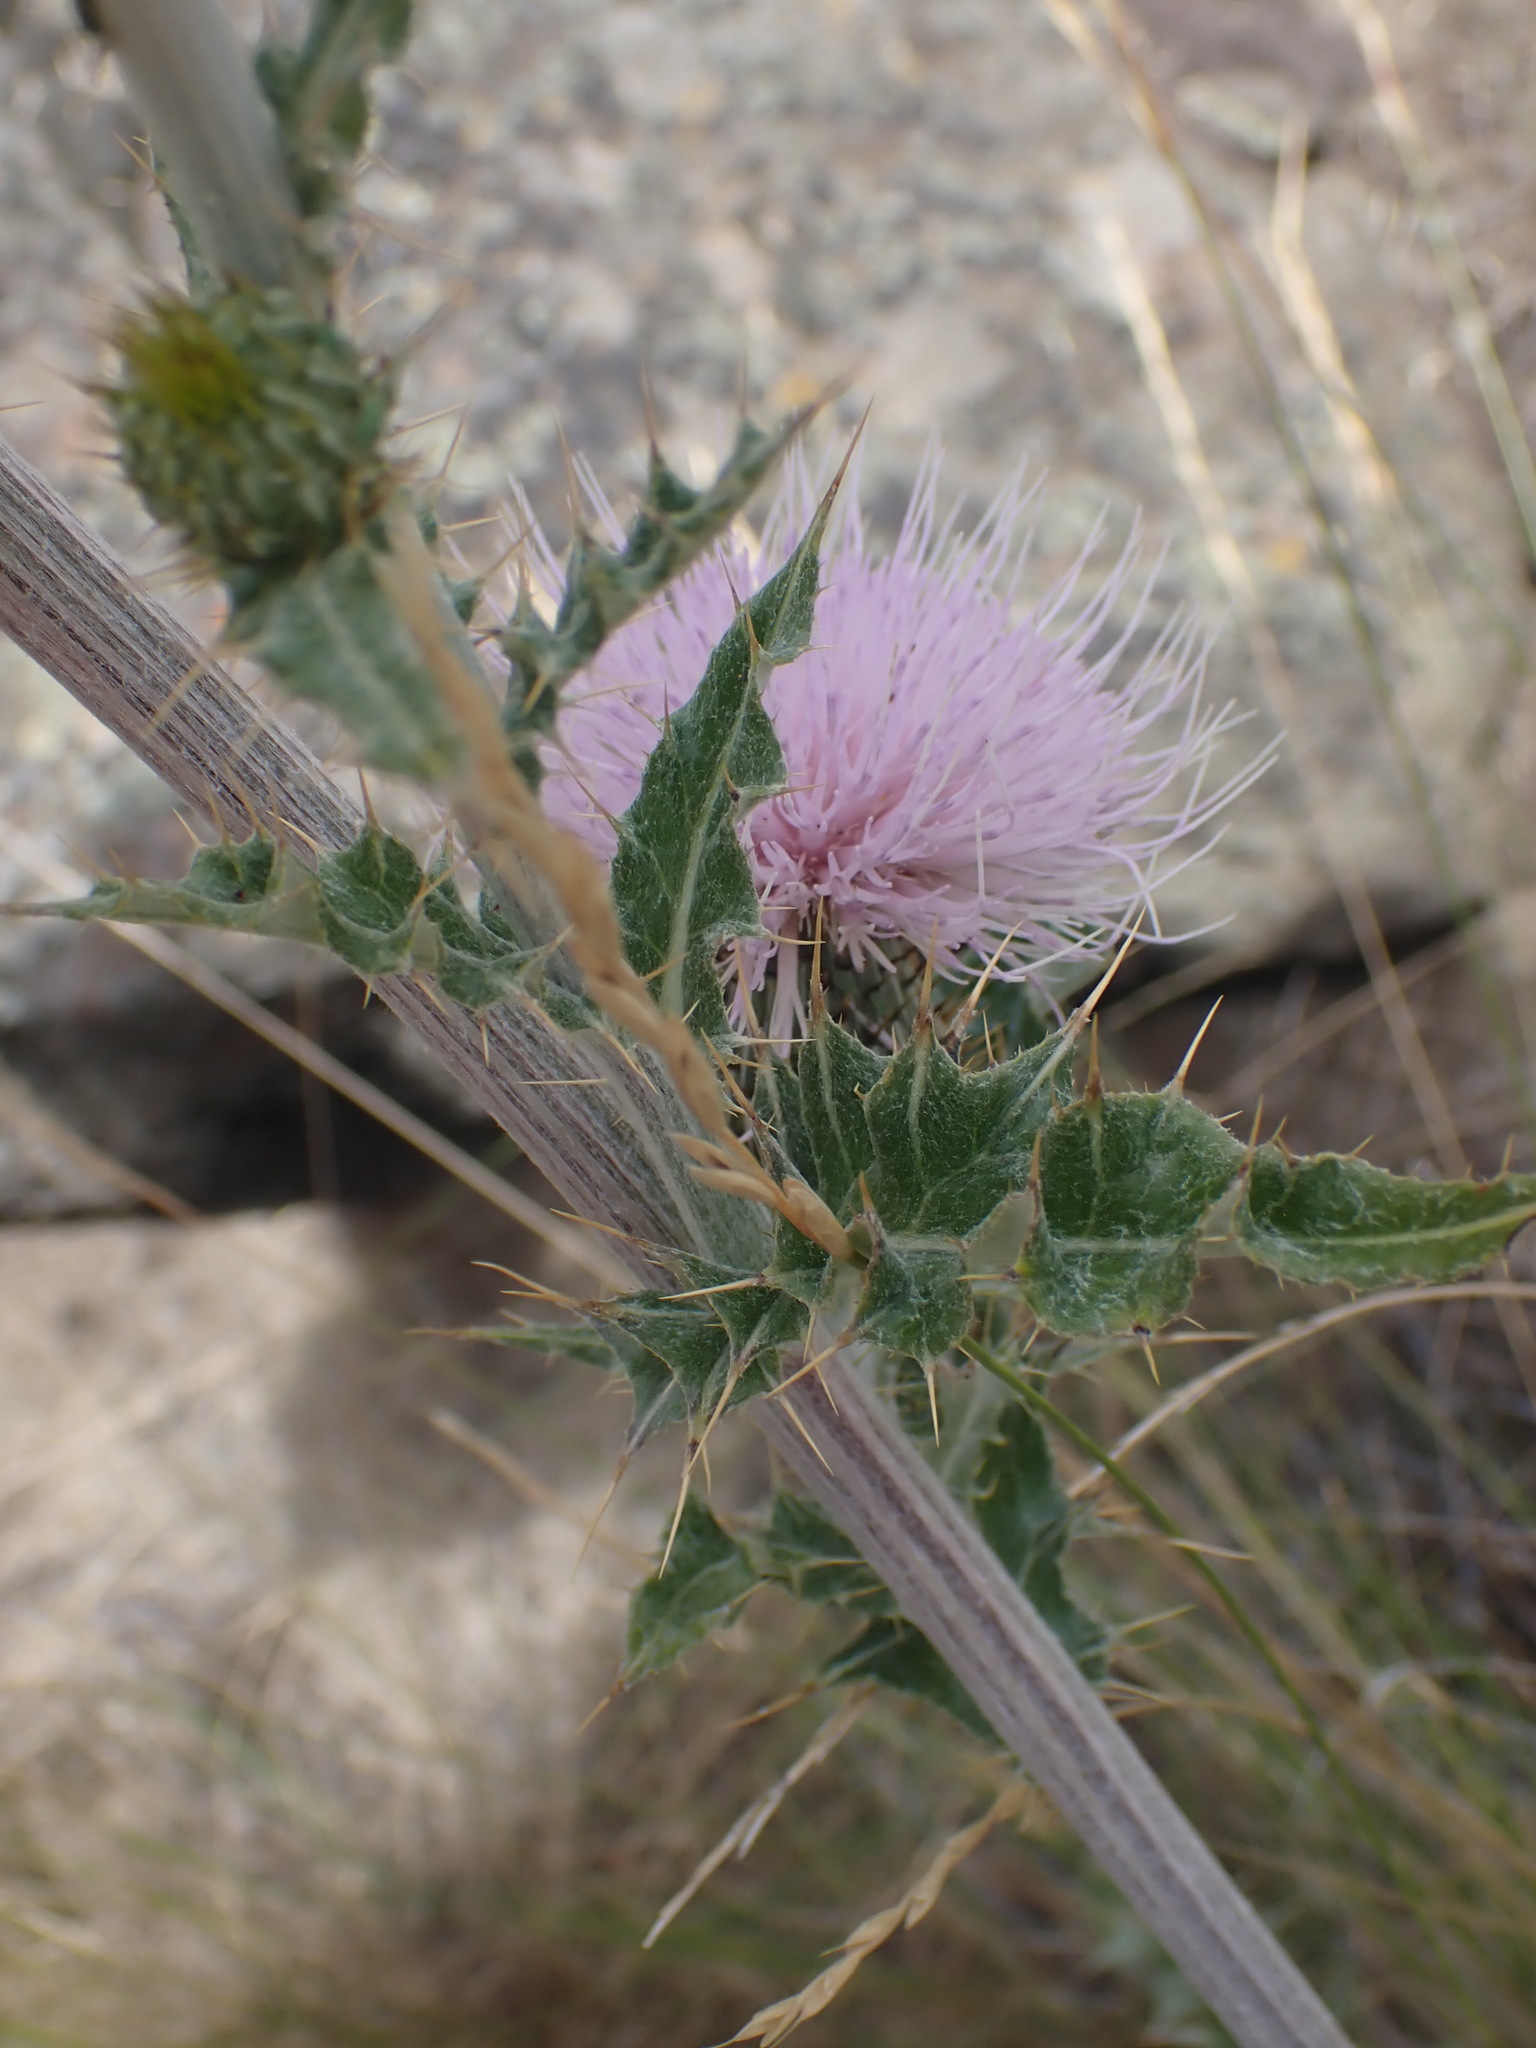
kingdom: Plantae
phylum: Tracheophyta
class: Magnoliopsida
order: Asterales
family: Asteraceae
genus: Cirsium
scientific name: Cirsium undulatum
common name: Pasture thistle
